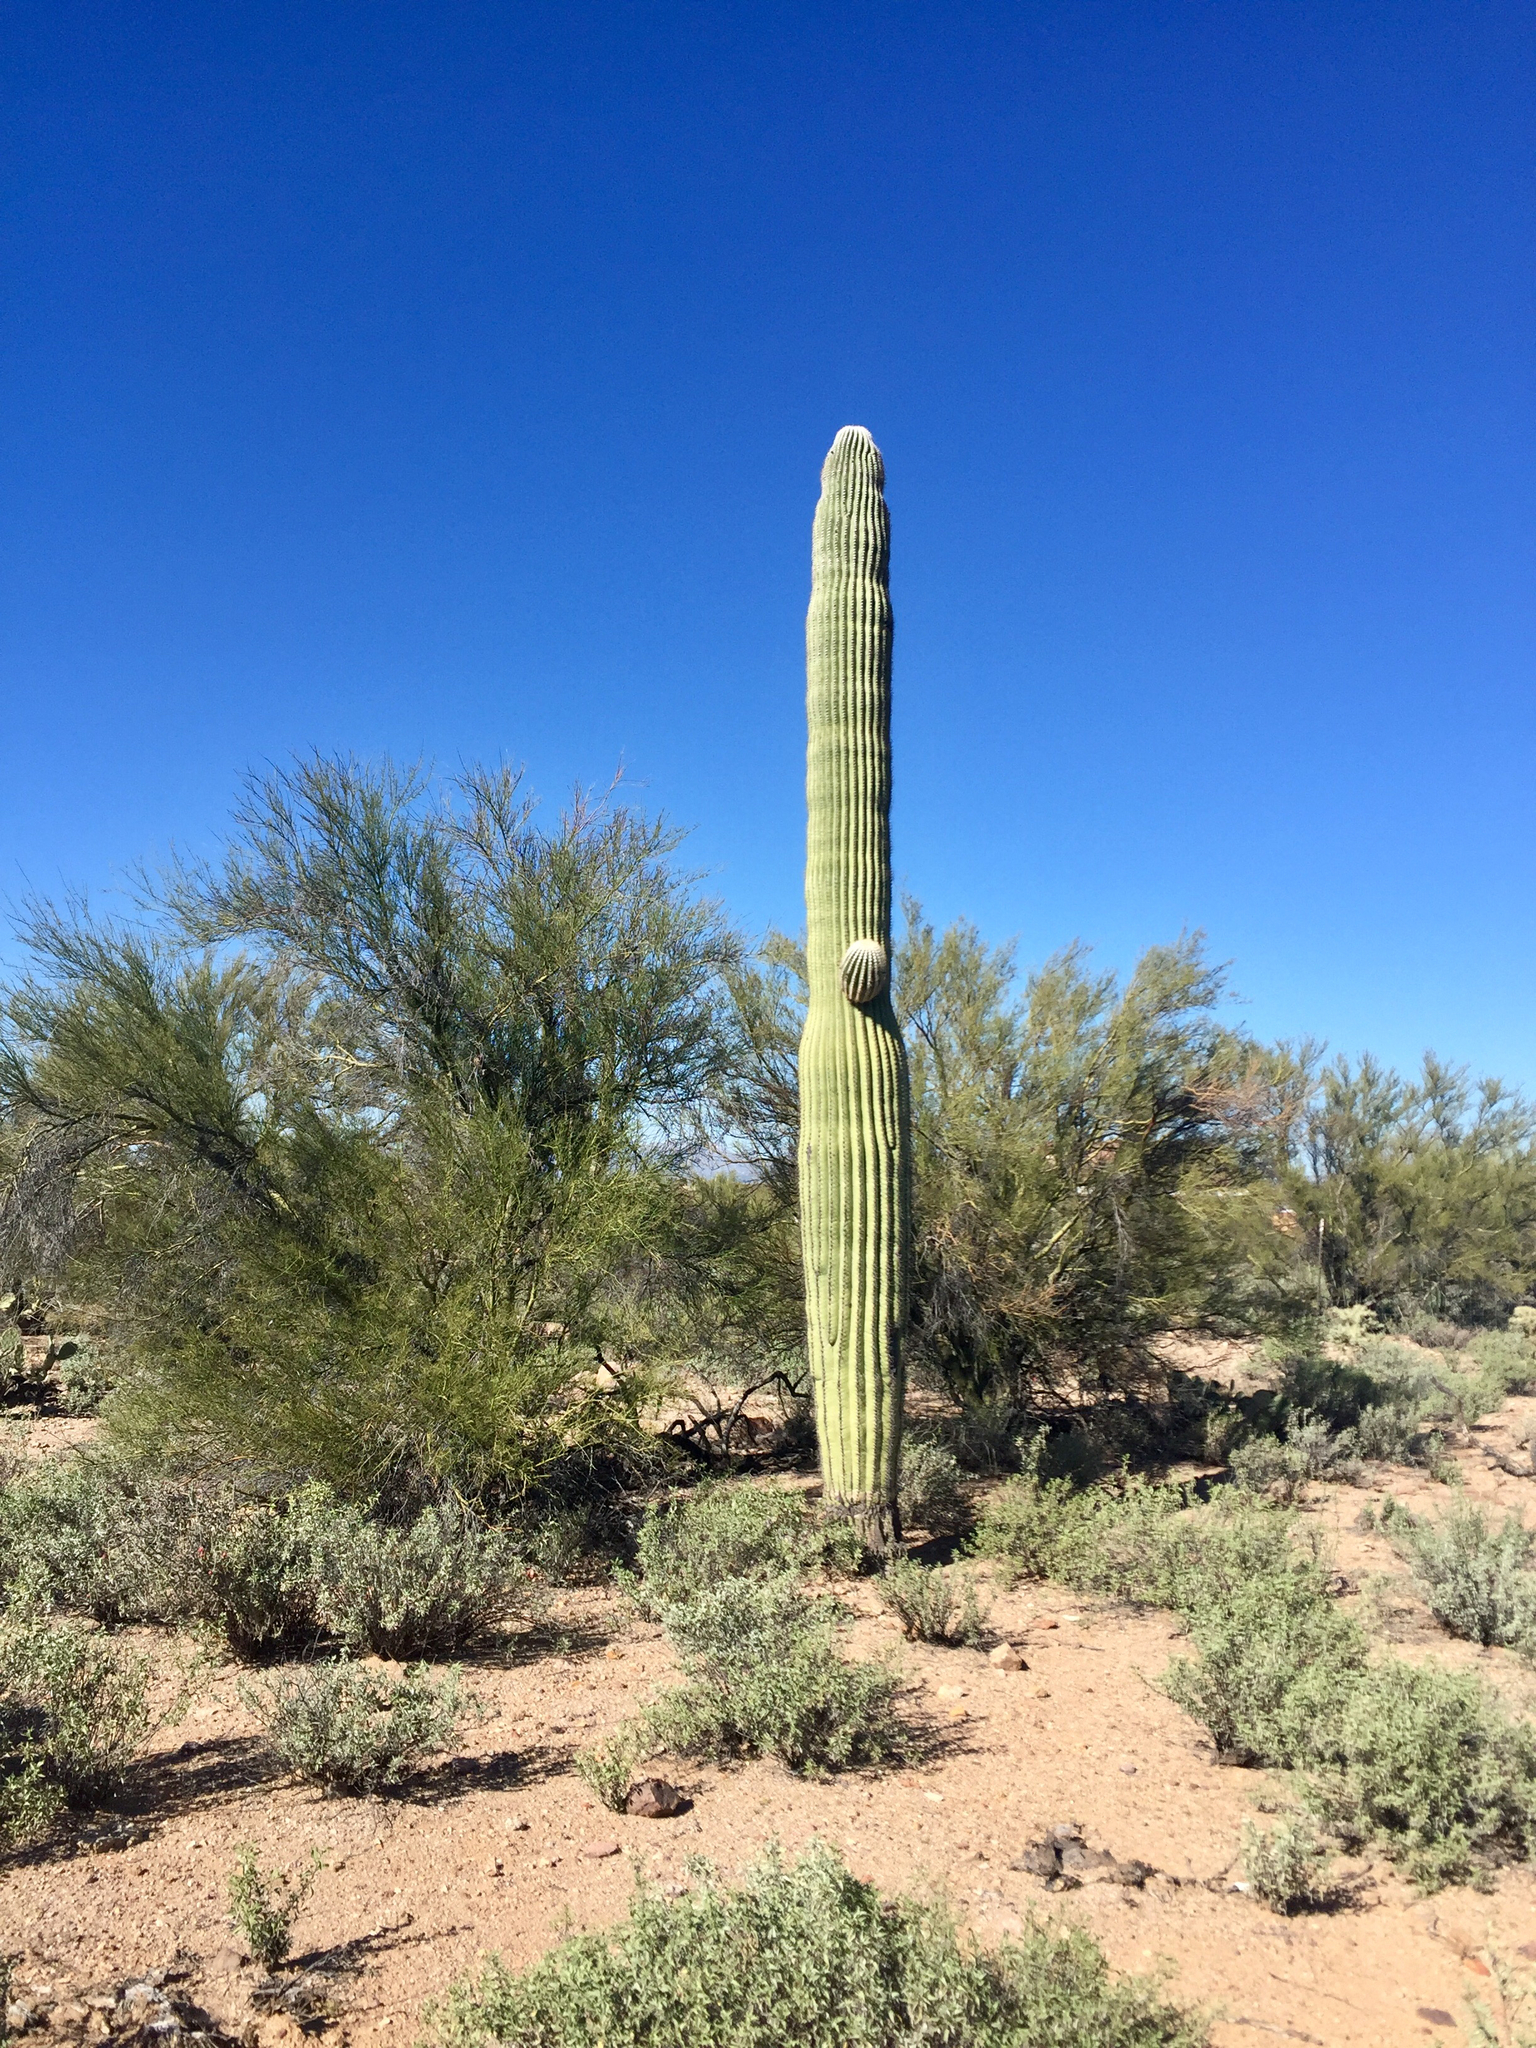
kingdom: Plantae
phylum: Tracheophyta
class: Magnoliopsida
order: Caryophyllales
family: Cactaceae
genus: Carnegiea
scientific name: Carnegiea gigantea
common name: Saguaro
